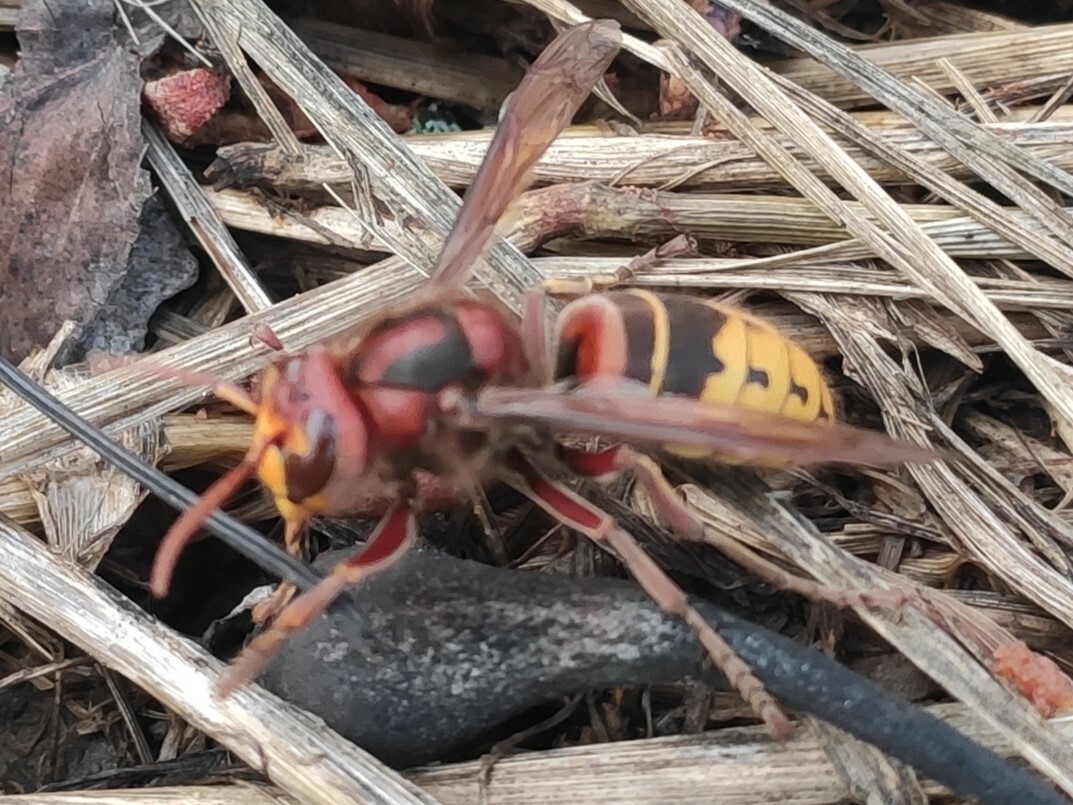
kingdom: Animalia
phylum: Arthropoda
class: Insecta
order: Hymenoptera
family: Vespidae
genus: Vespa
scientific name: Vespa crabro
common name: Hornet
